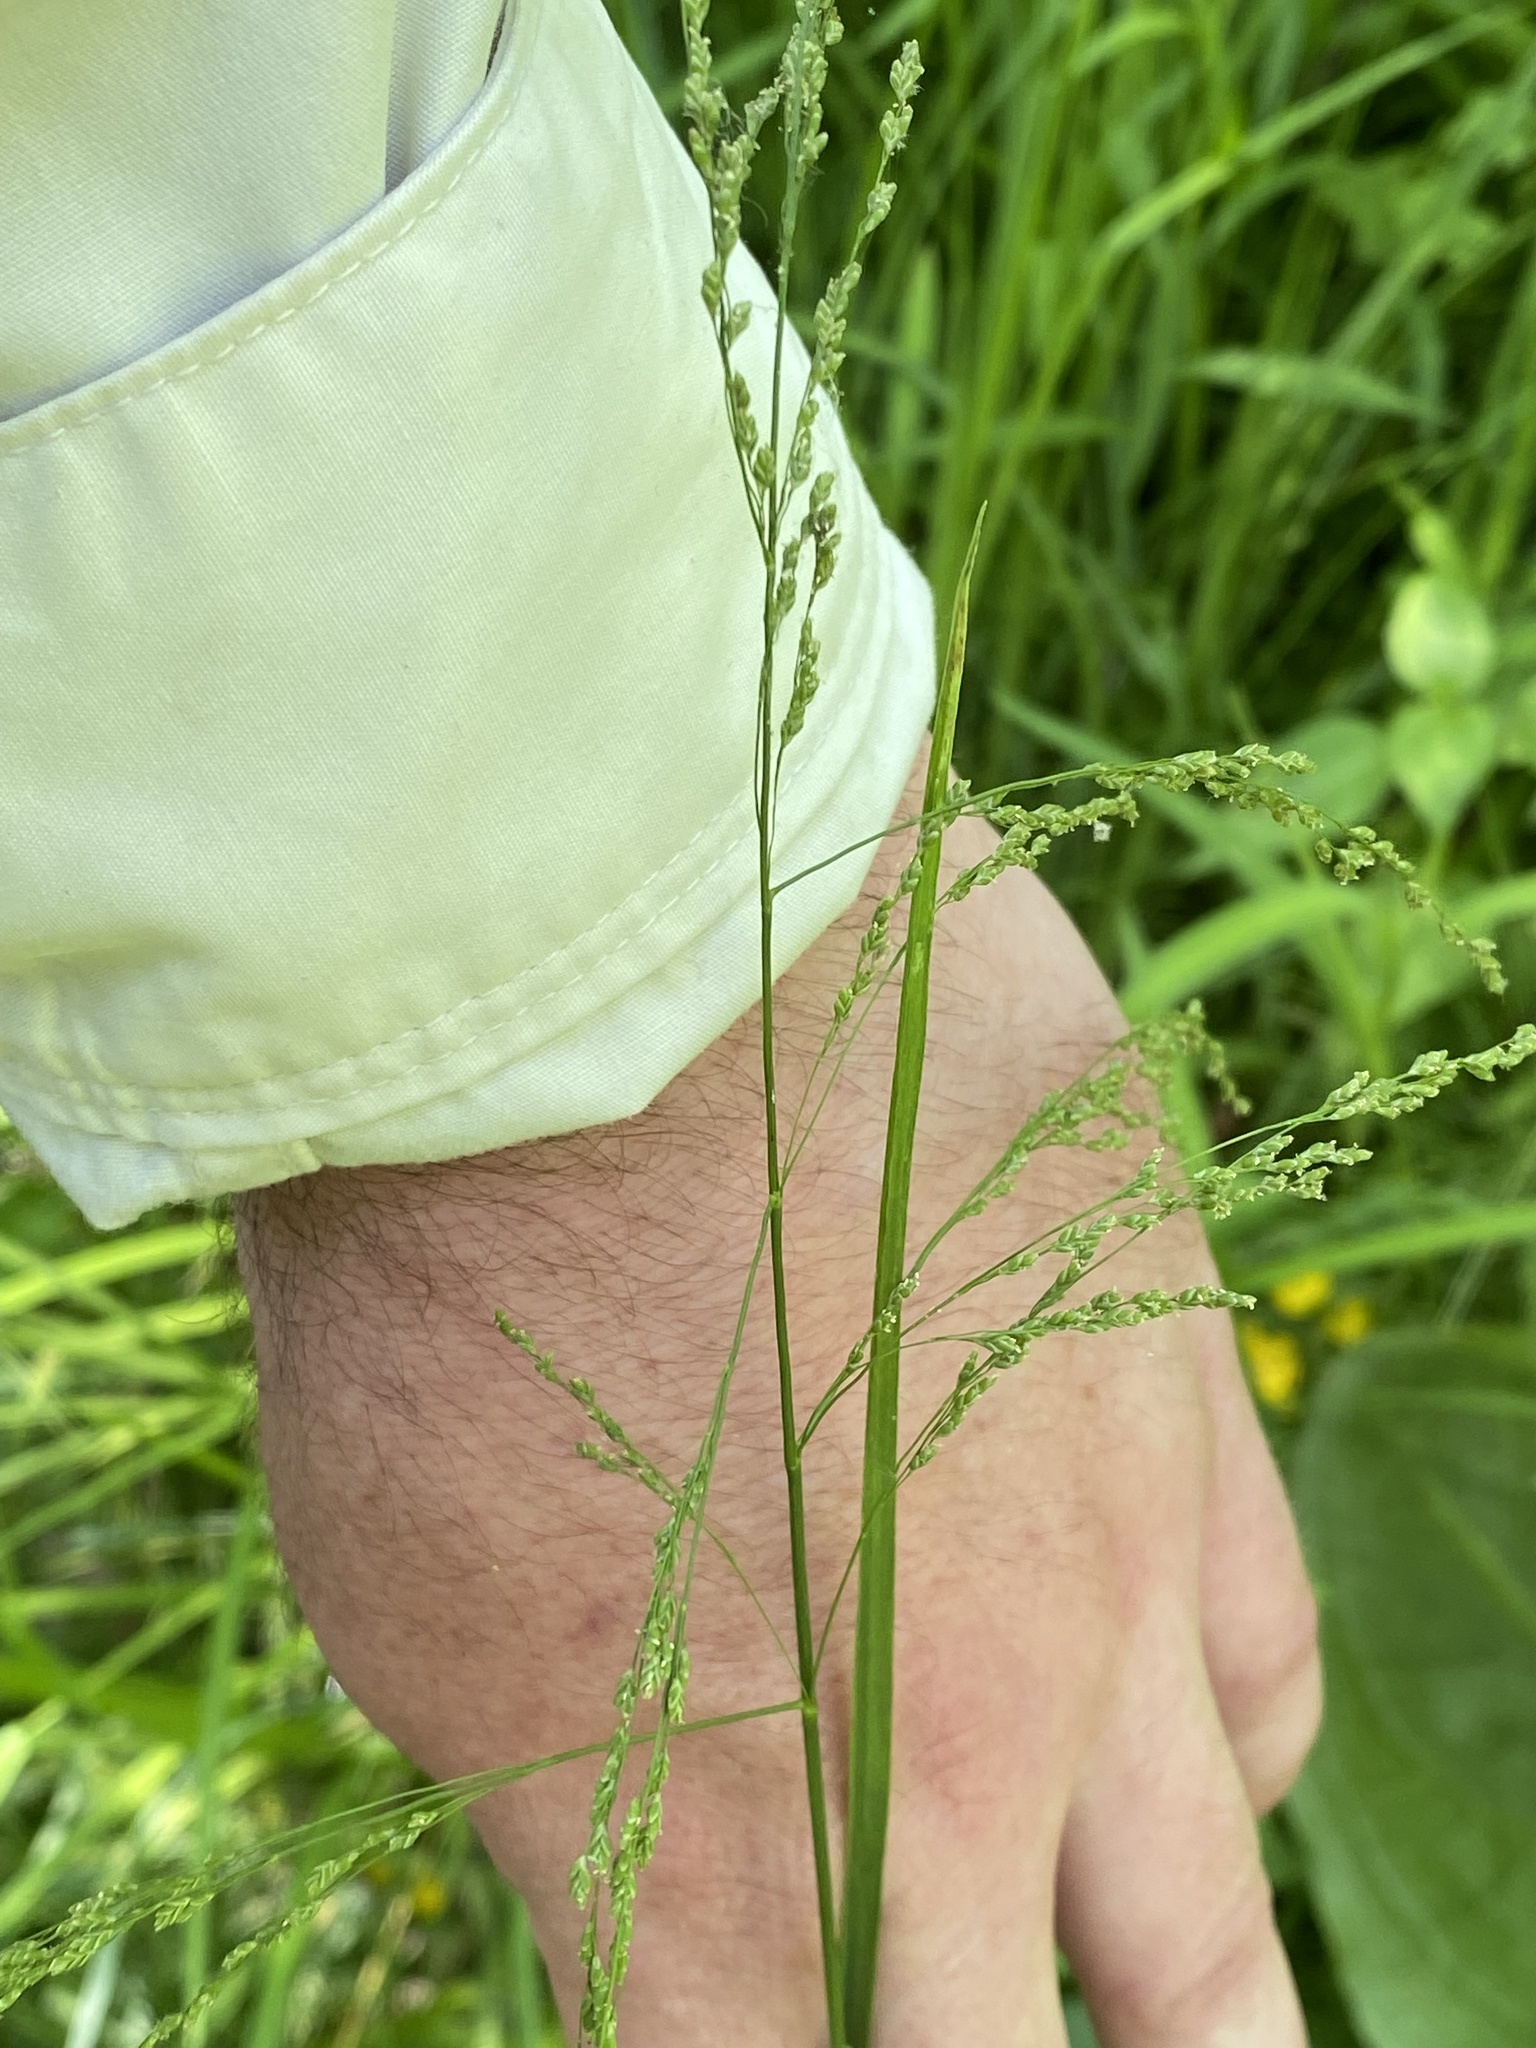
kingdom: Plantae
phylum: Tracheophyta
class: Liliopsida
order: Poales
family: Poaceae
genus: Glyceria
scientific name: Glyceria striata
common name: Fowl manna grass
